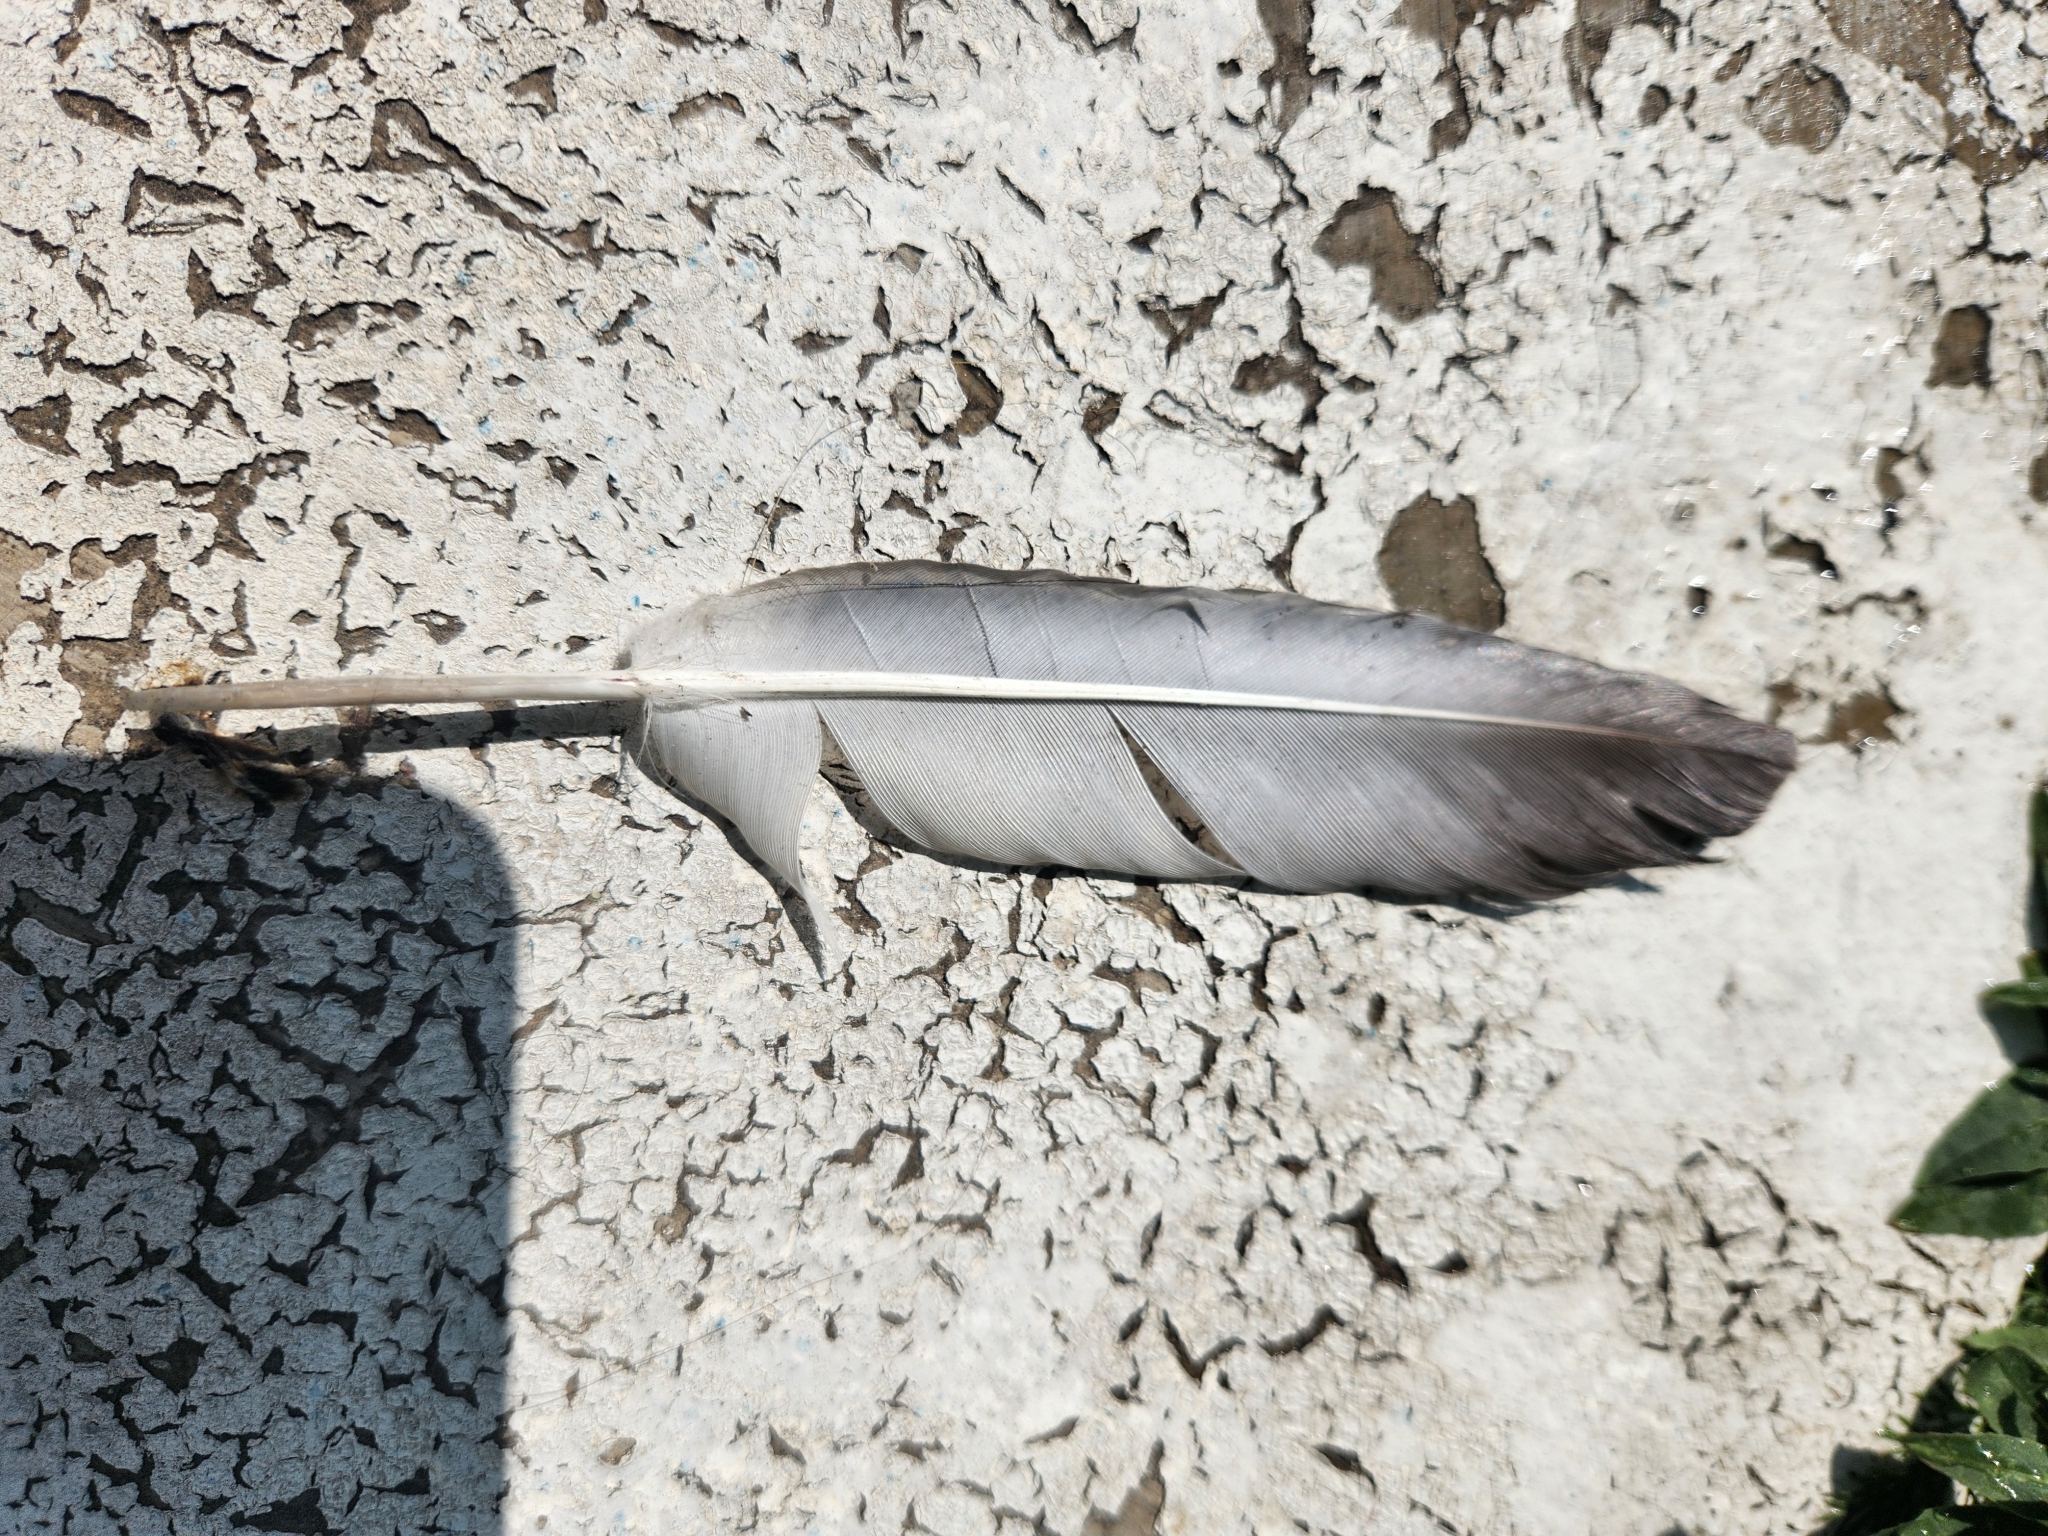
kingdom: Animalia
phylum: Chordata
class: Aves
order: Columbiformes
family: Columbidae
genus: Columba
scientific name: Columba livia
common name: Rock pigeon
